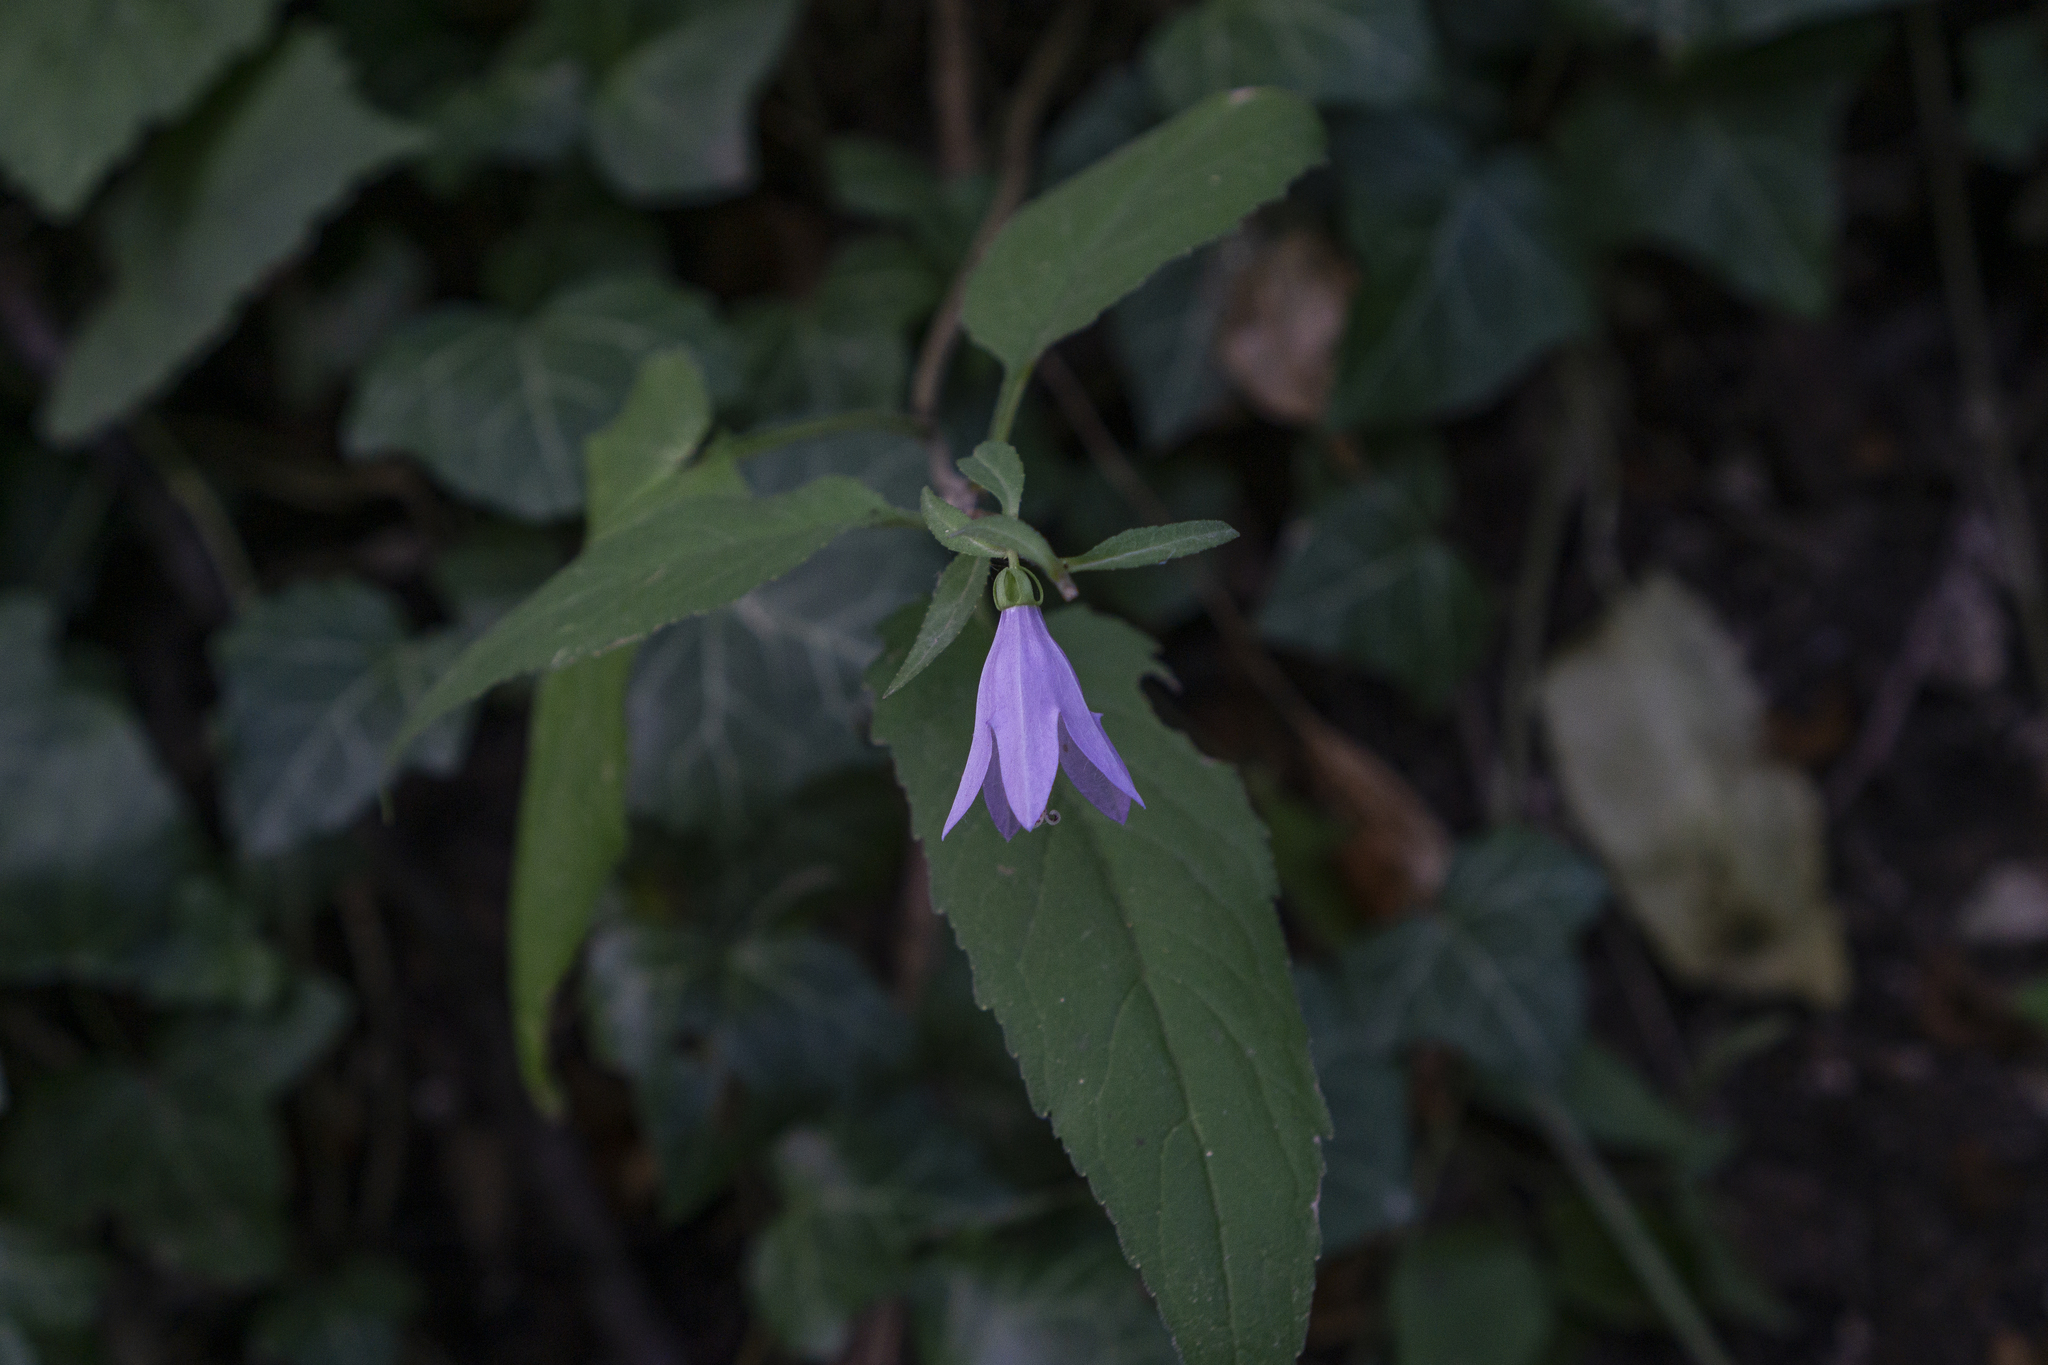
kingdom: Plantae
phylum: Tracheophyta
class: Magnoliopsida
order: Asterales
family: Campanulaceae
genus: Campanula
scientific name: Campanula rapunculoides
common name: Creeping bellflower
